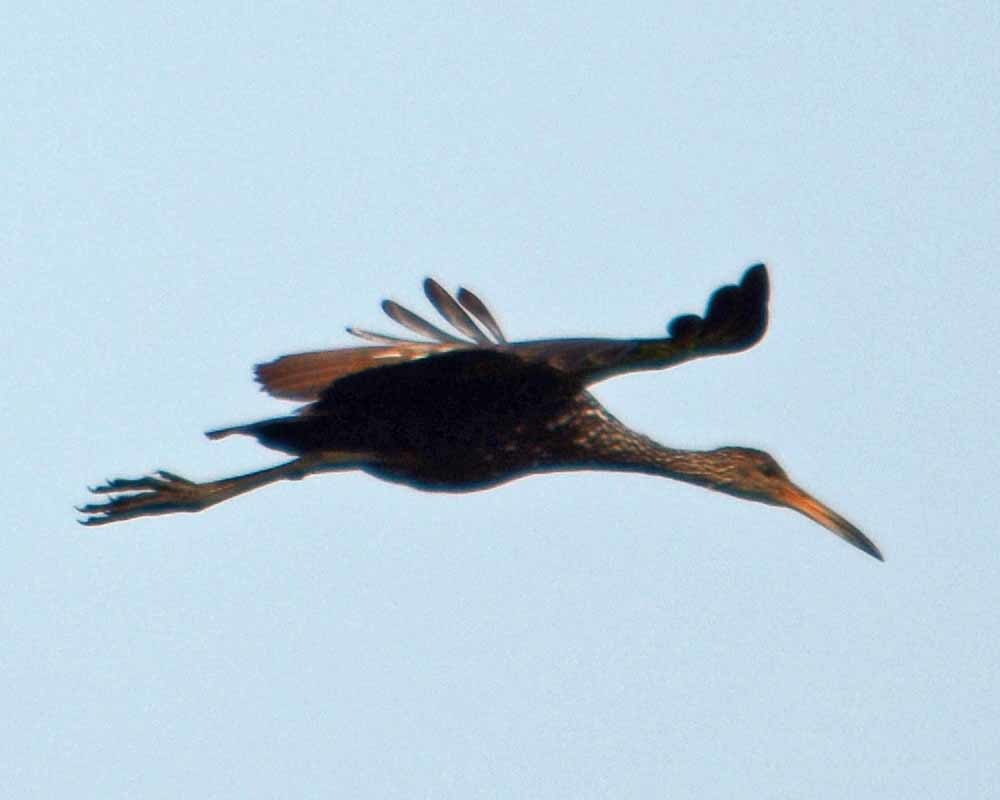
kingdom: Animalia
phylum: Chordata
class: Aves
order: Gruiformes
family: Aramidae
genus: Aramus
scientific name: Aramus guarauna
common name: Limpkin
